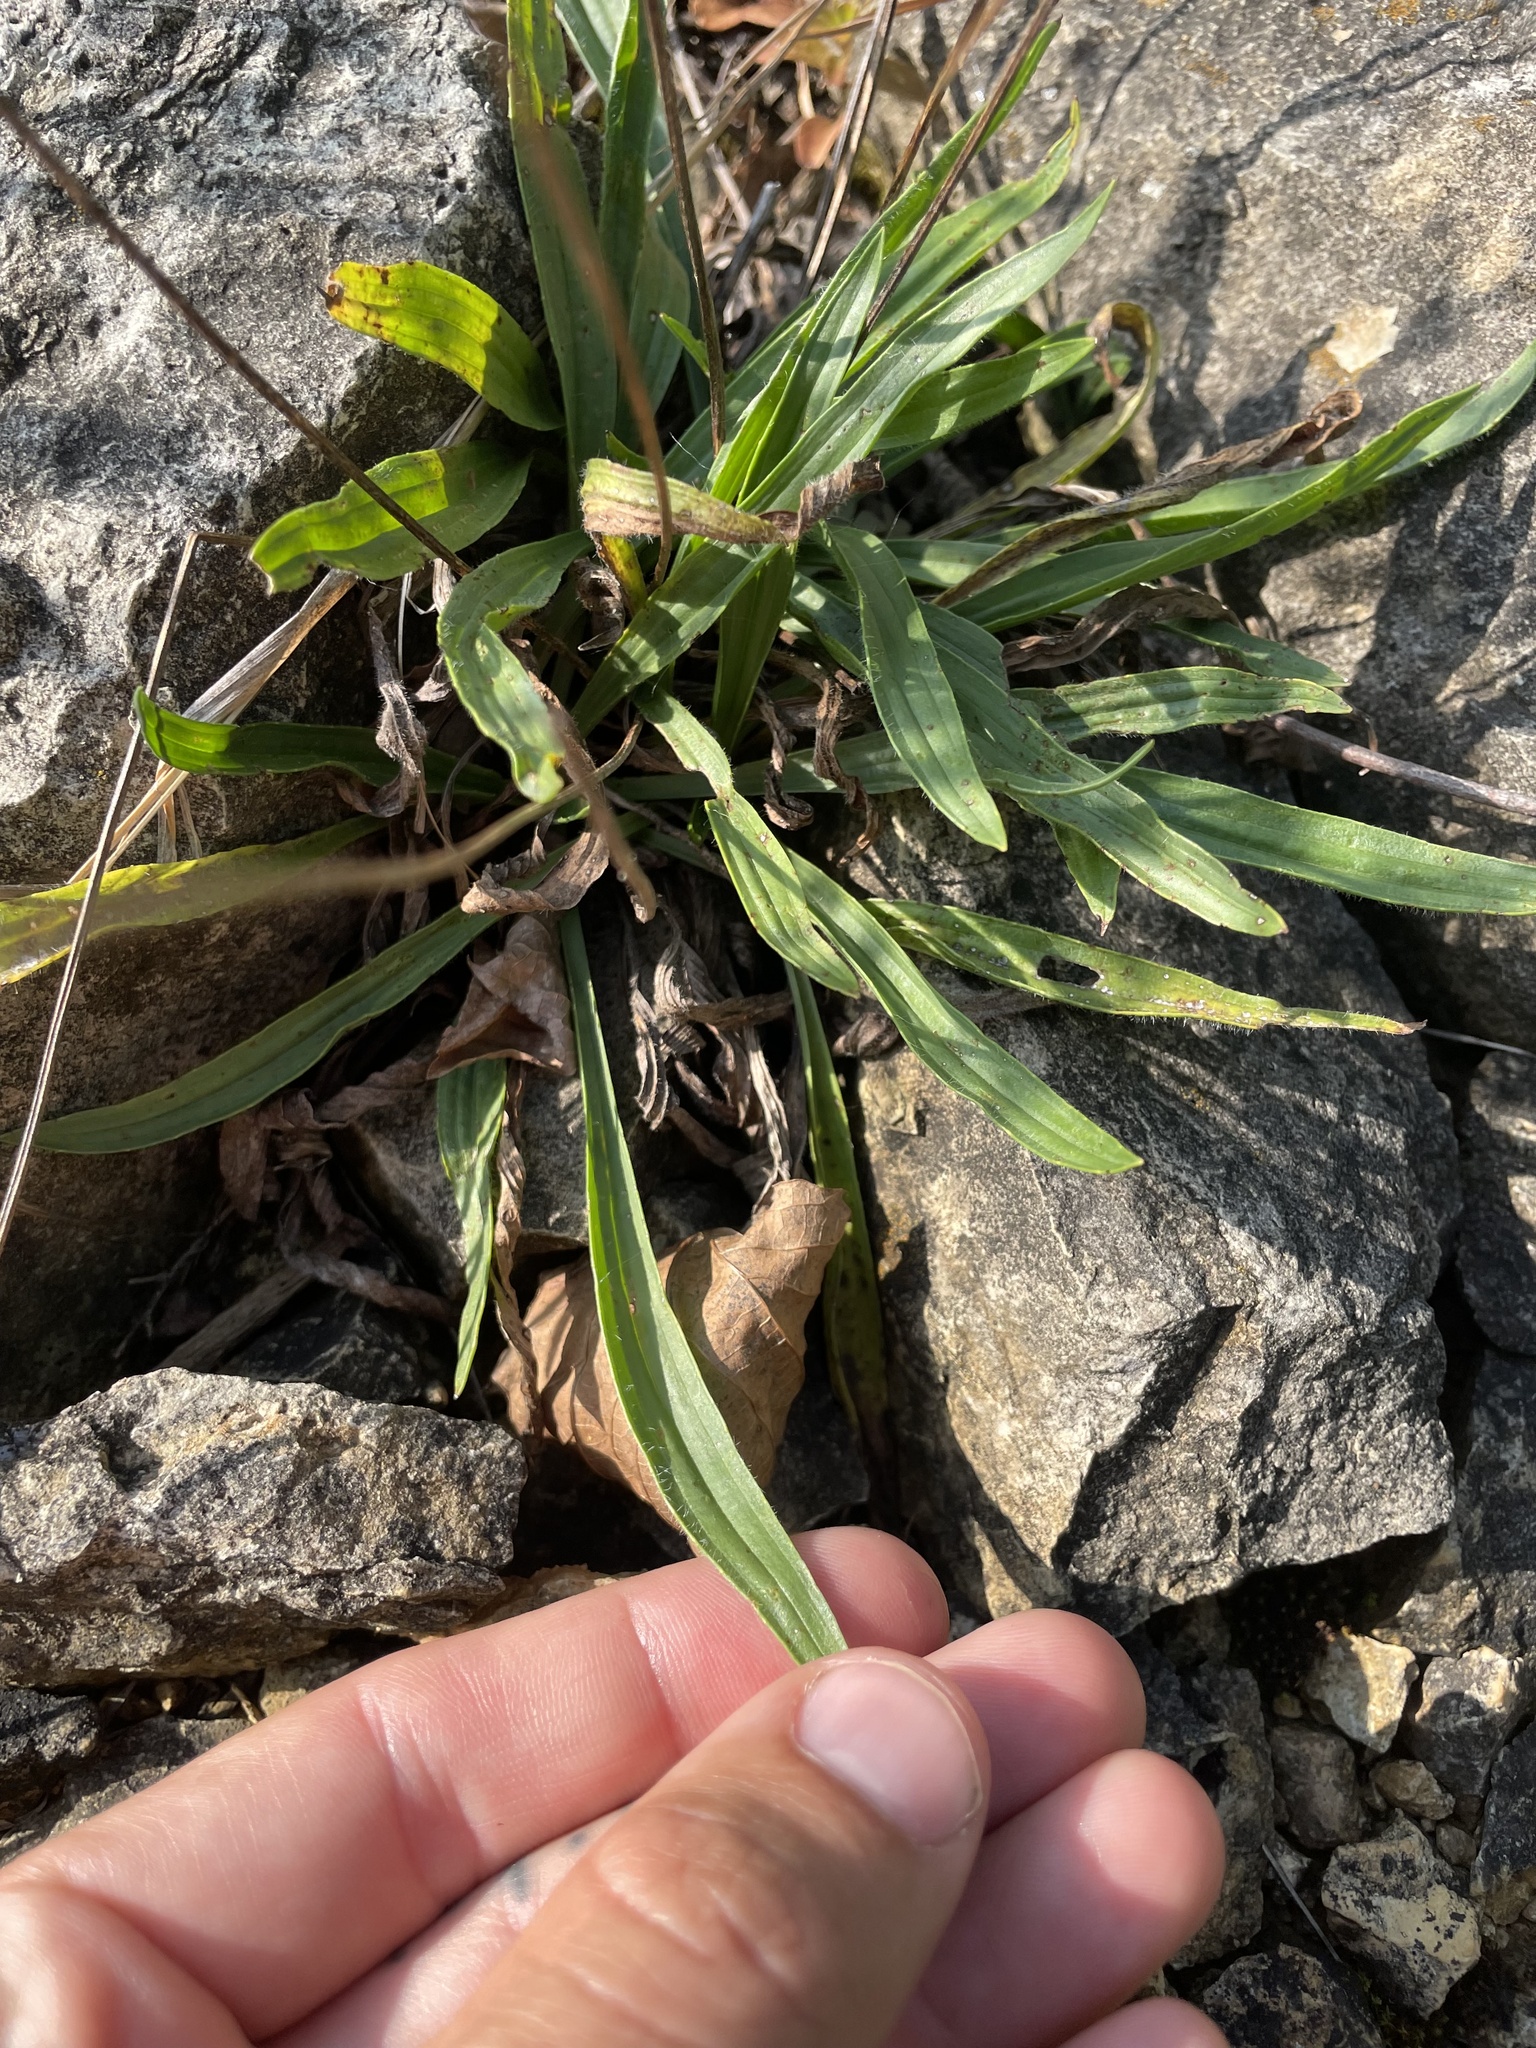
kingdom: Plantae
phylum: Tracheophyta
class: Magnoliopsida
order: Lamiales
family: Plantaginaceae
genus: Plantago
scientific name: Plantago lanceolata
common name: Ribwort plantain
